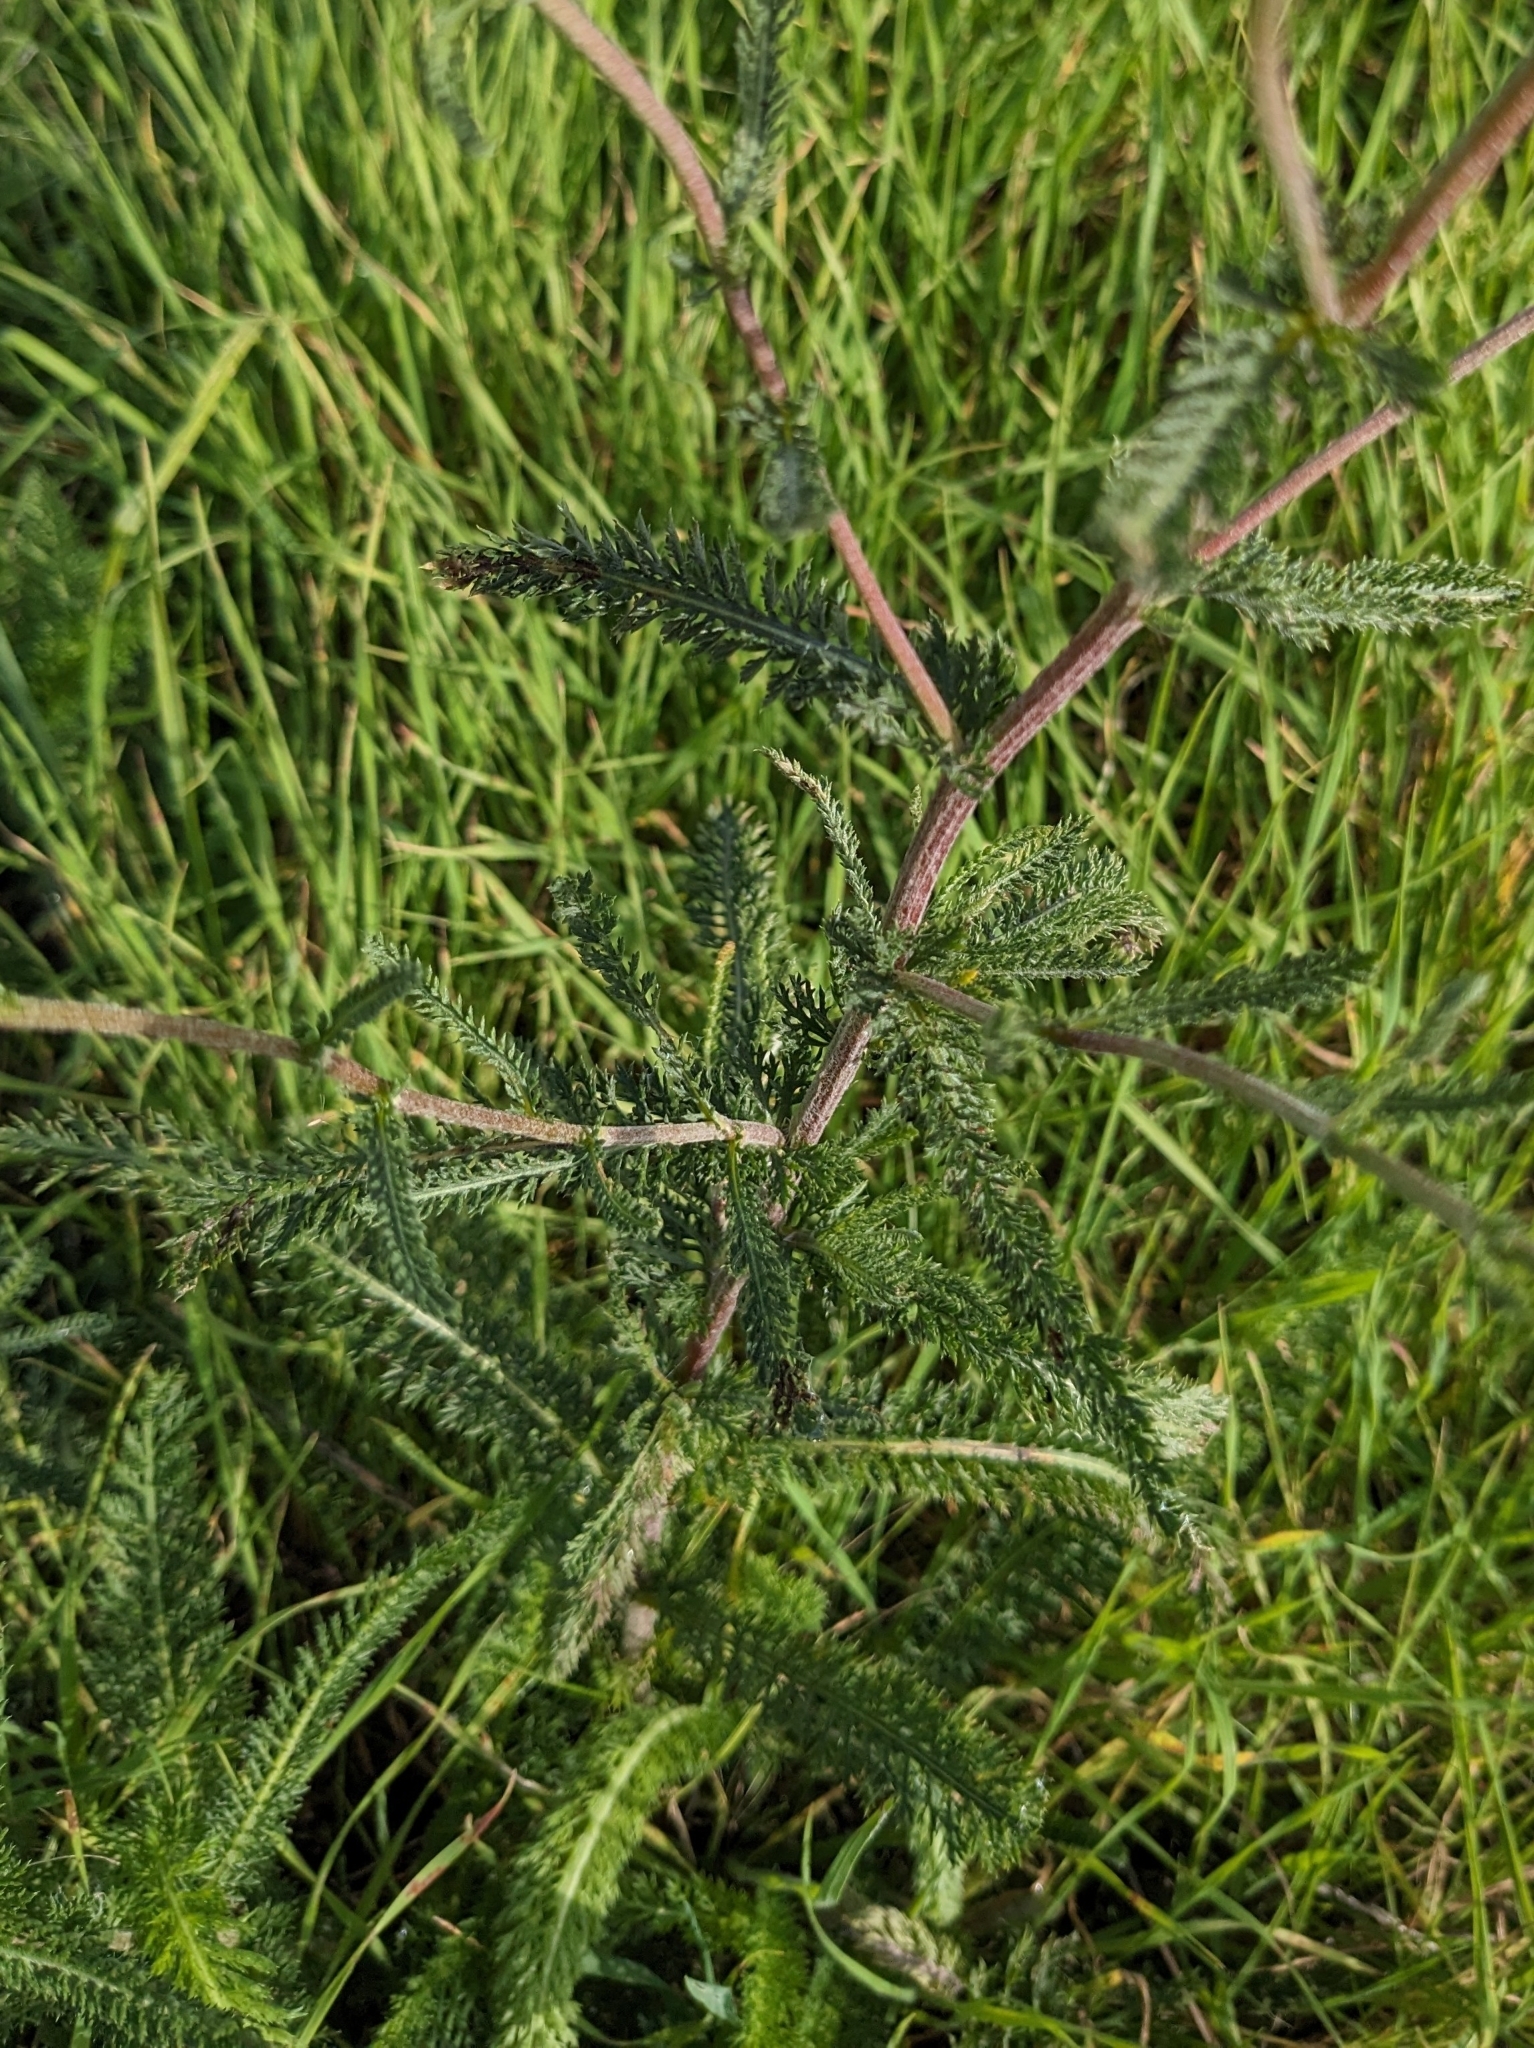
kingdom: Plantae
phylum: Tracheophyta
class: Magnoliopsida
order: Asterales
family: Asteraceae
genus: Achillea
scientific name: Achillea millefolium
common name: Yarrow
